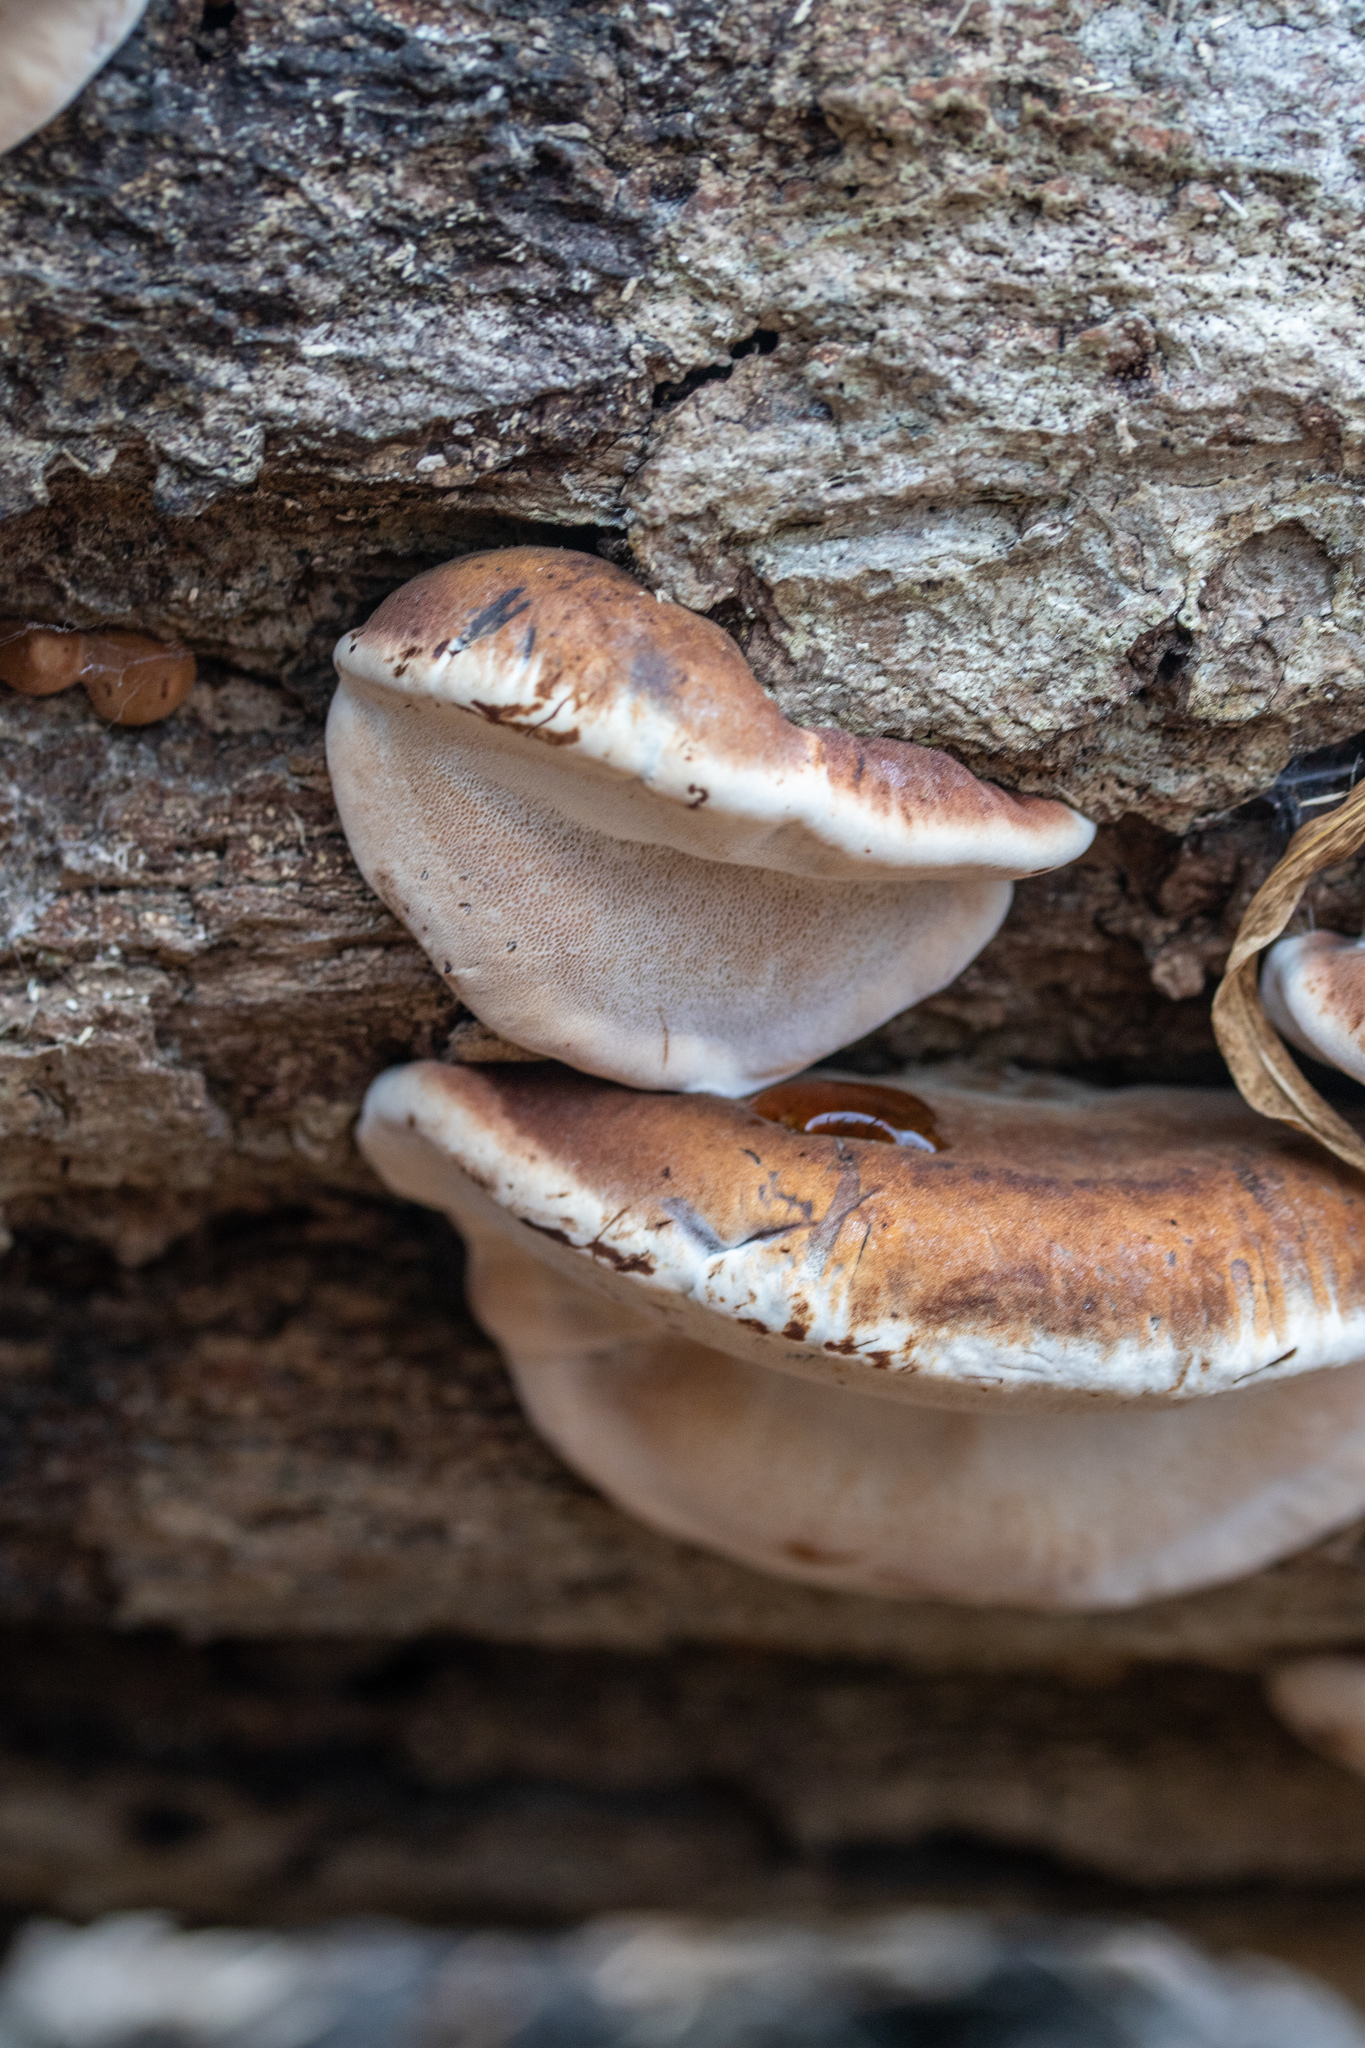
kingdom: Fungi
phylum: Basidiomycota
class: Agaricomycetes
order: Polyporales
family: Ischnodermataceae
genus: Ischnoderma
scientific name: Ischnoderma resinosum
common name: Resinous polypore
